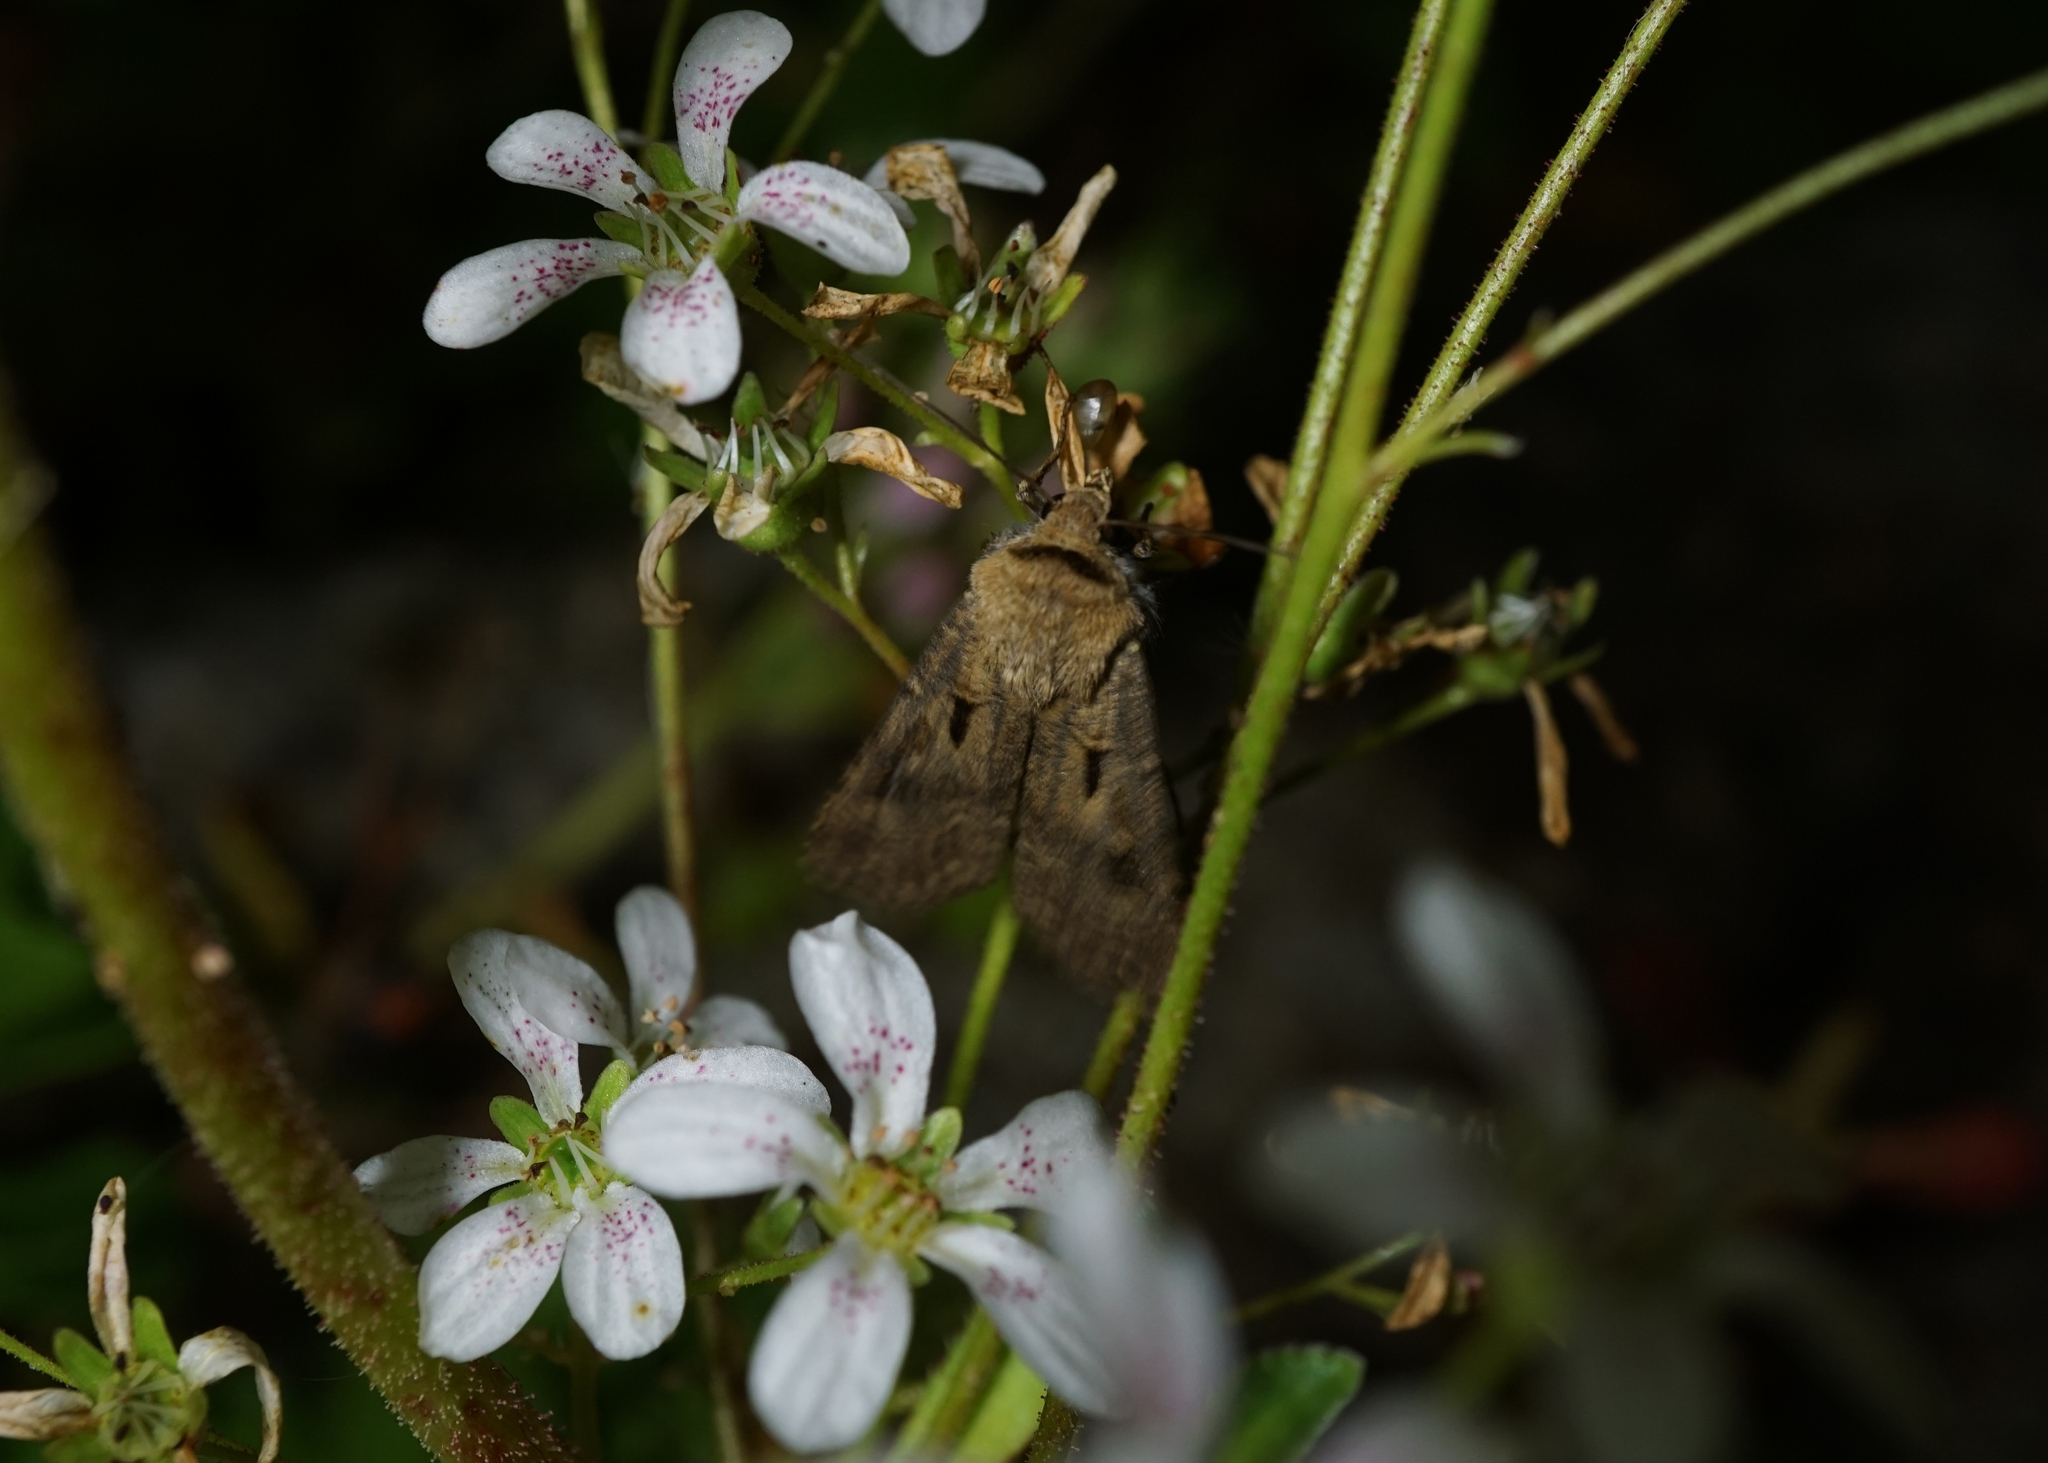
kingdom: Animalia
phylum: Arthropoda
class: Insecta
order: Lepidoptera
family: Noctuidae
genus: Agrotis
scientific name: Agrotis exclamationis
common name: Heart and dart
